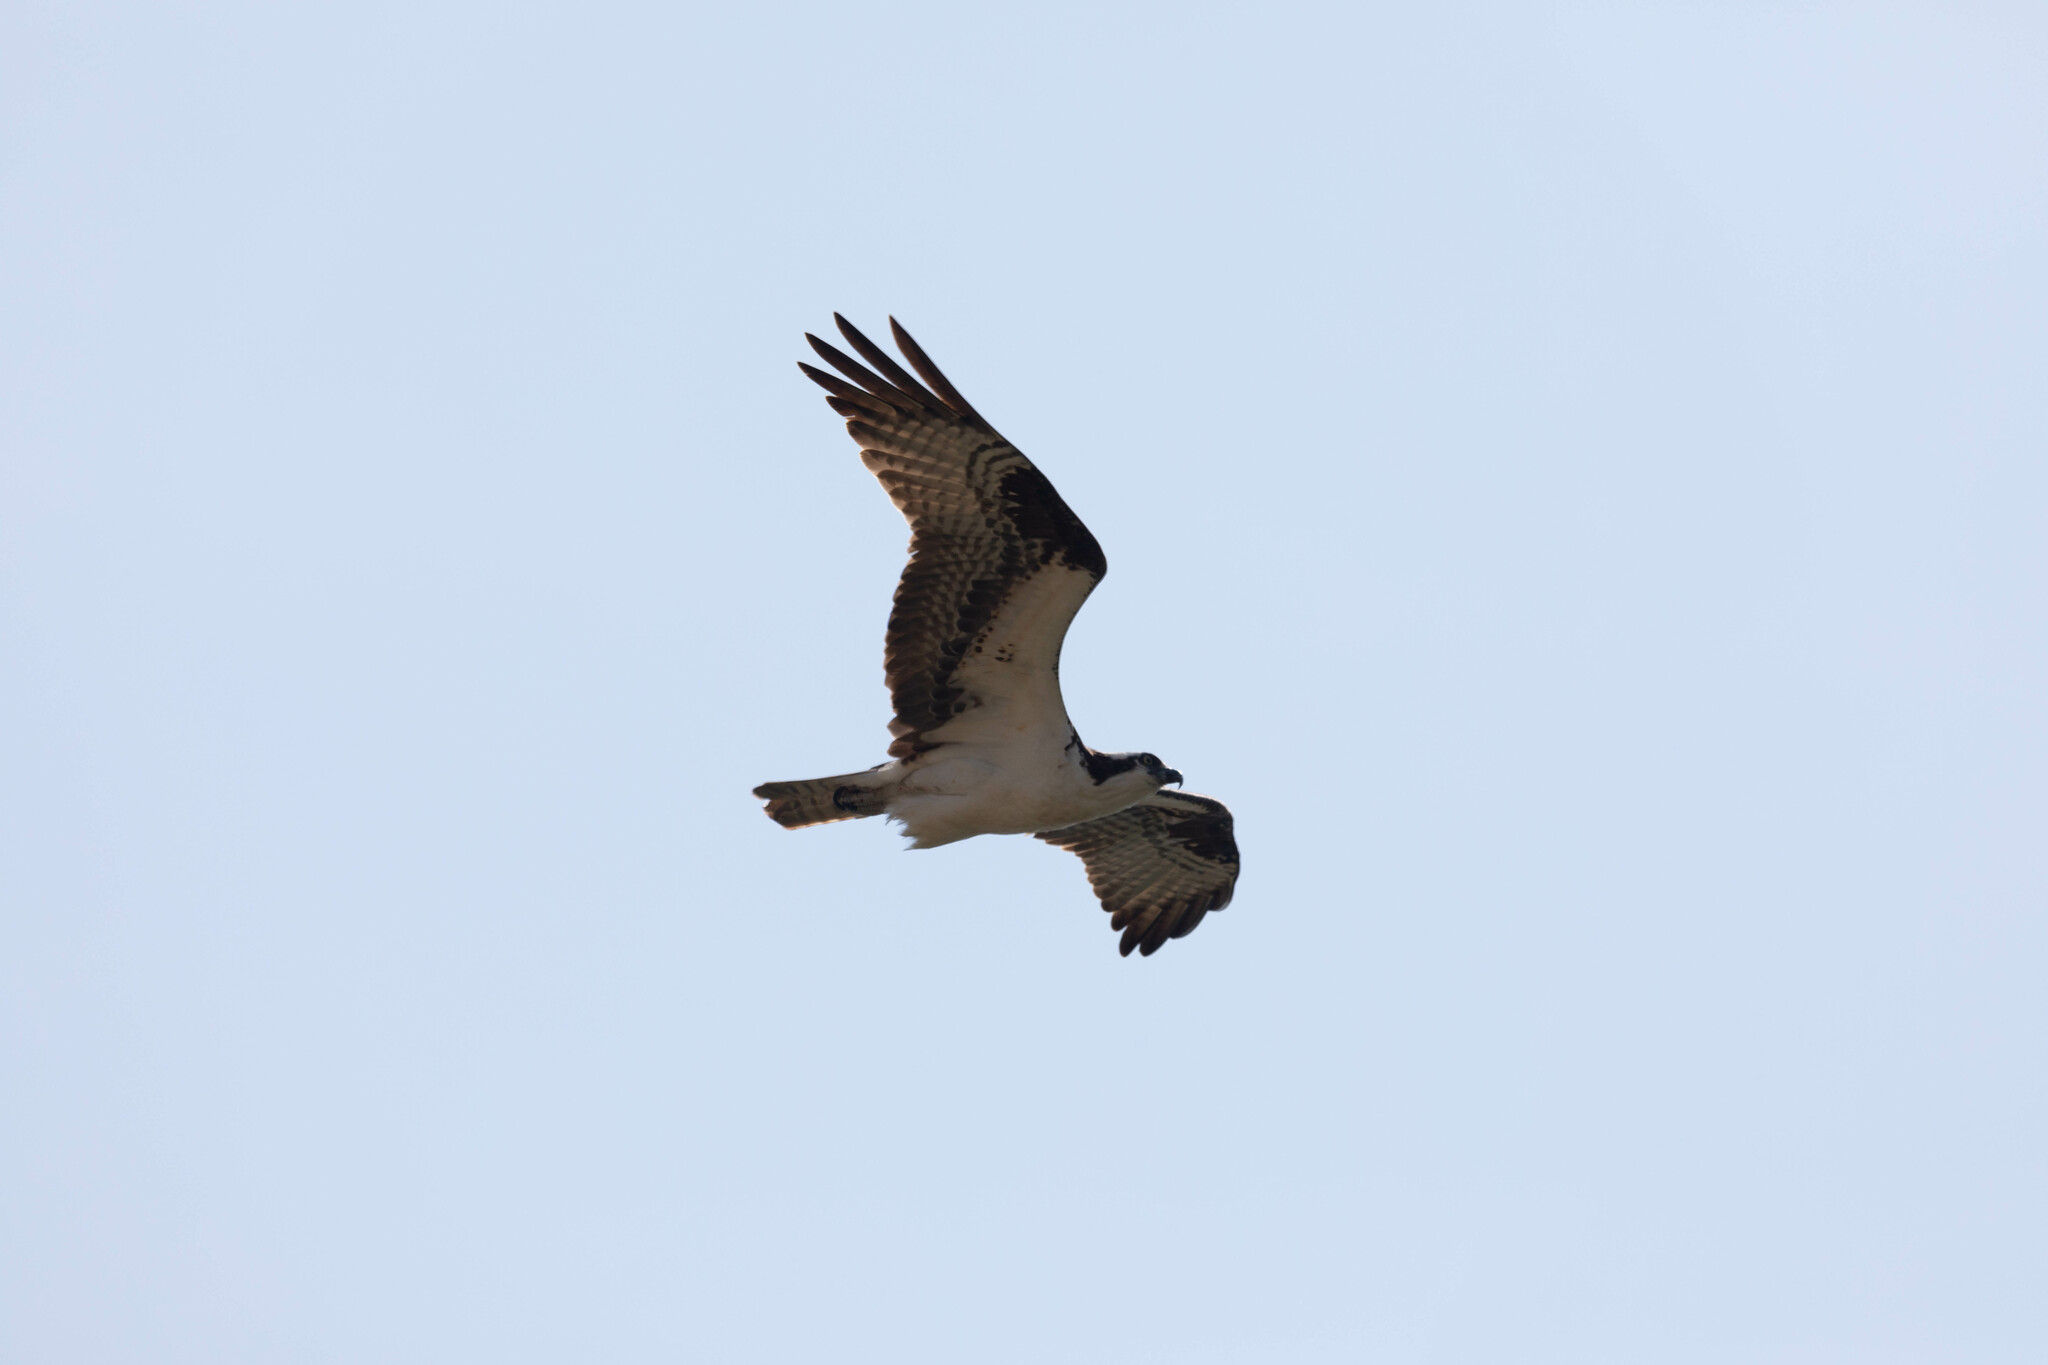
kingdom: Animalia
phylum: Chordata
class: Aves
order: Accipitriformes
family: Pandionidae
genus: Pandion
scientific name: Pandion haliaetus
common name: Osprey
